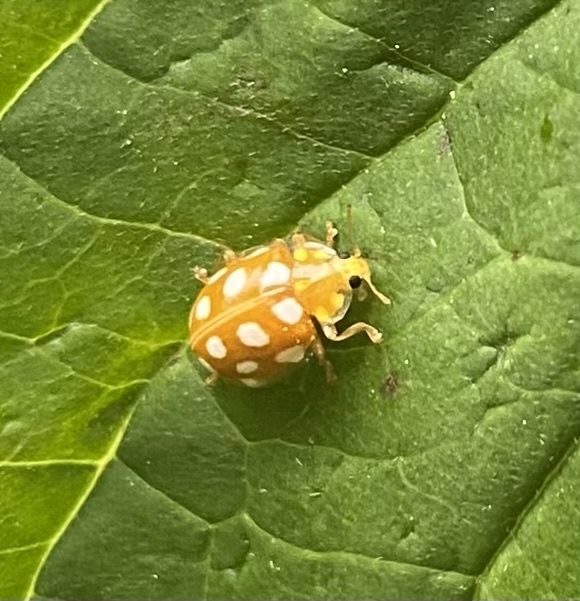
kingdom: Animalia
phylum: Arthropoda
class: Insecta
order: Coleoptera
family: Coccinellidae
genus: Halyzia
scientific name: Halyzia sedecimguttata
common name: Orange ladybird
